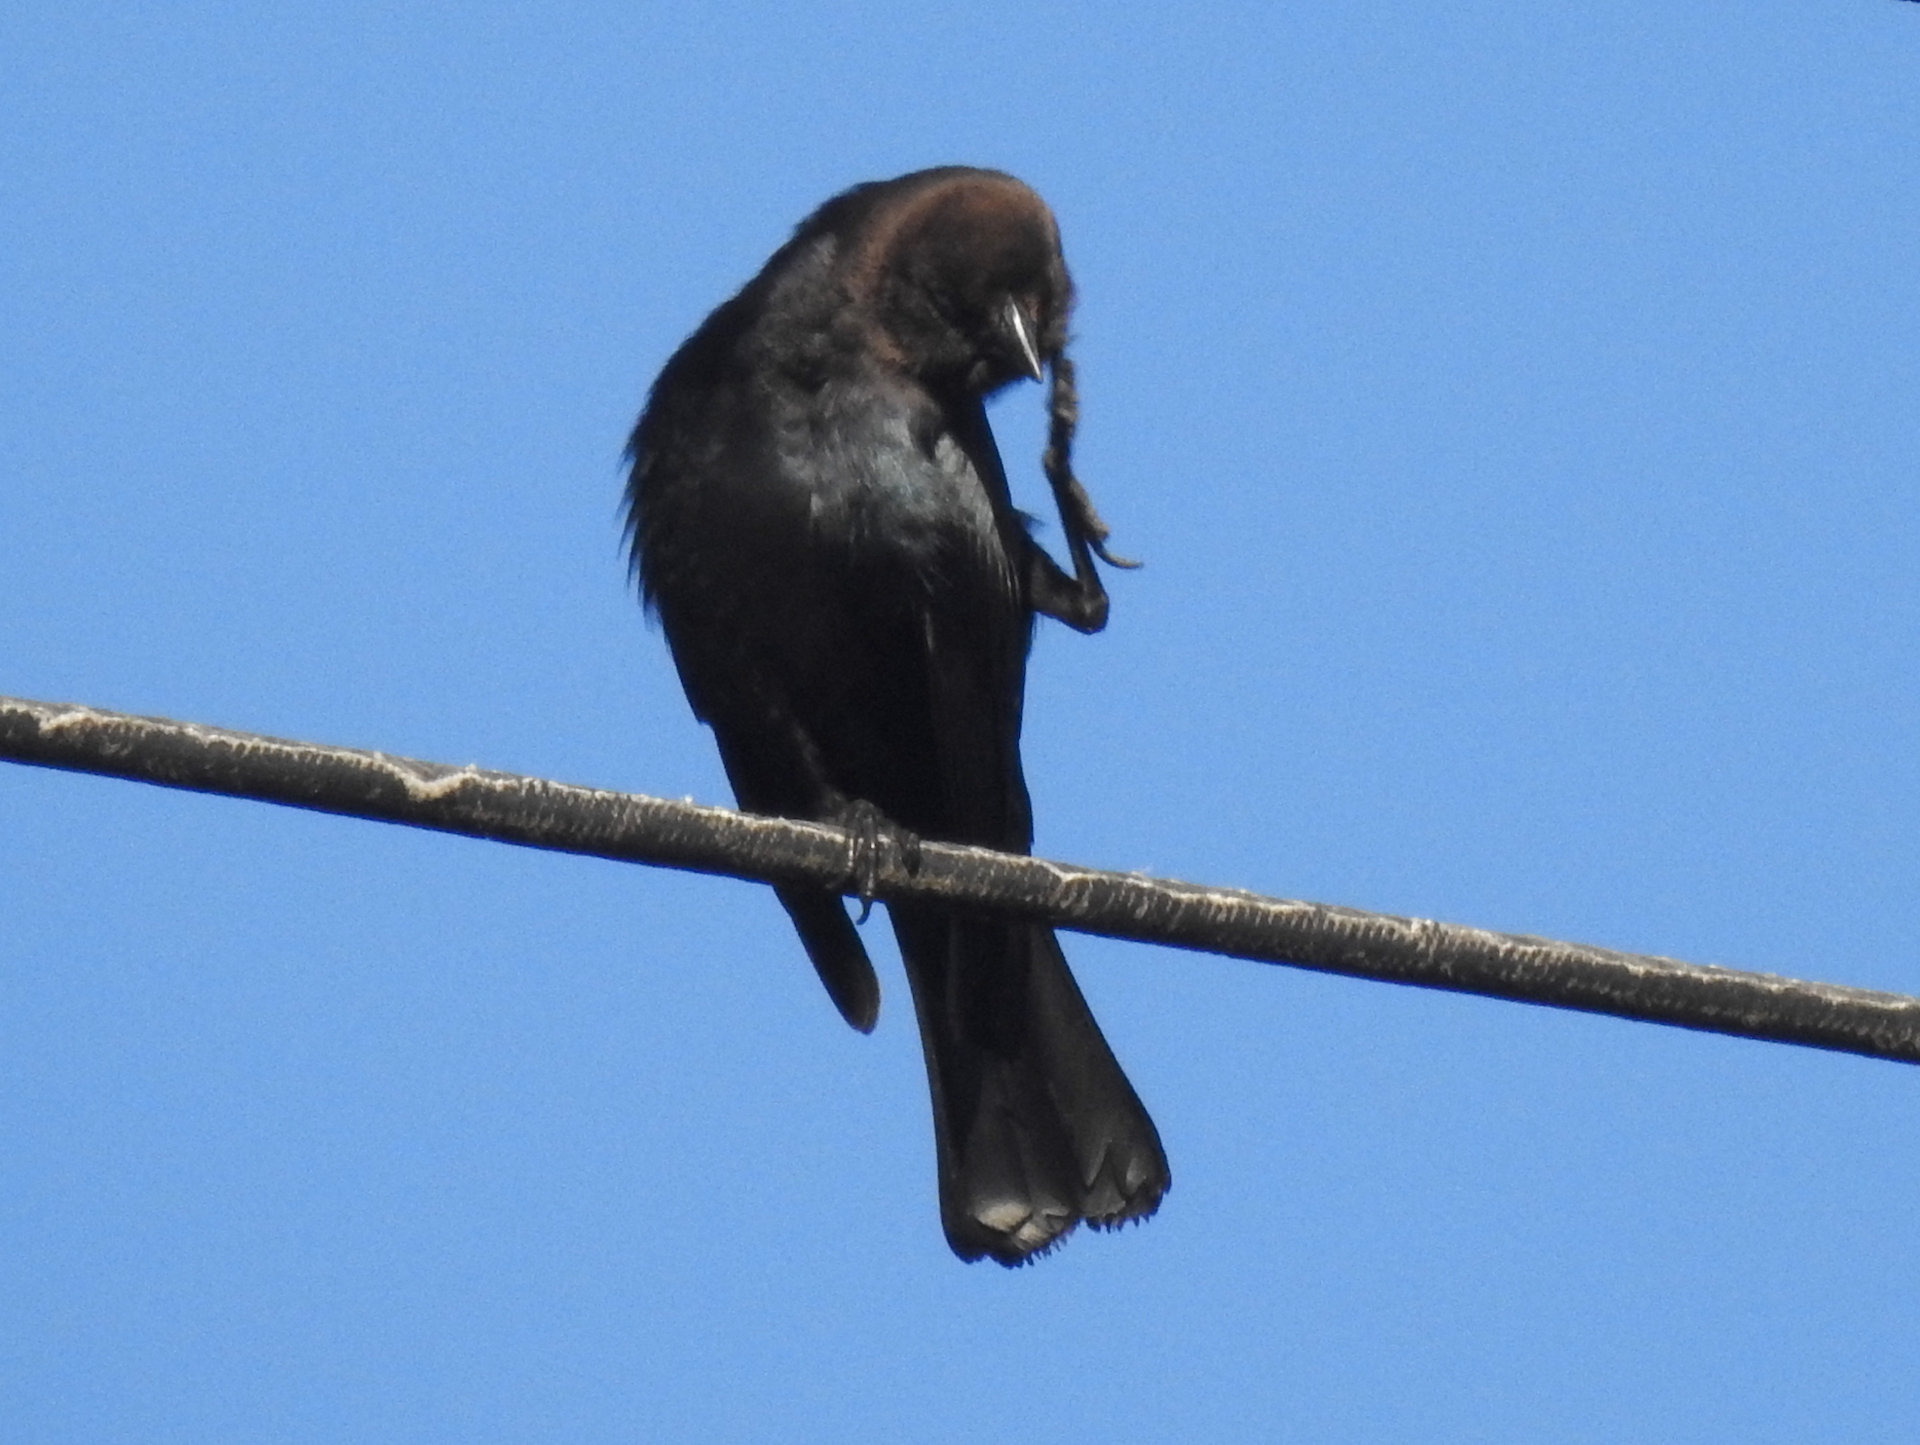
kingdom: Animalia
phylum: Chordata
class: Aves
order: Passeriformes
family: Icteridae
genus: Molothrus
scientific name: Molothrus ater
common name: Brown-headed cowbird
